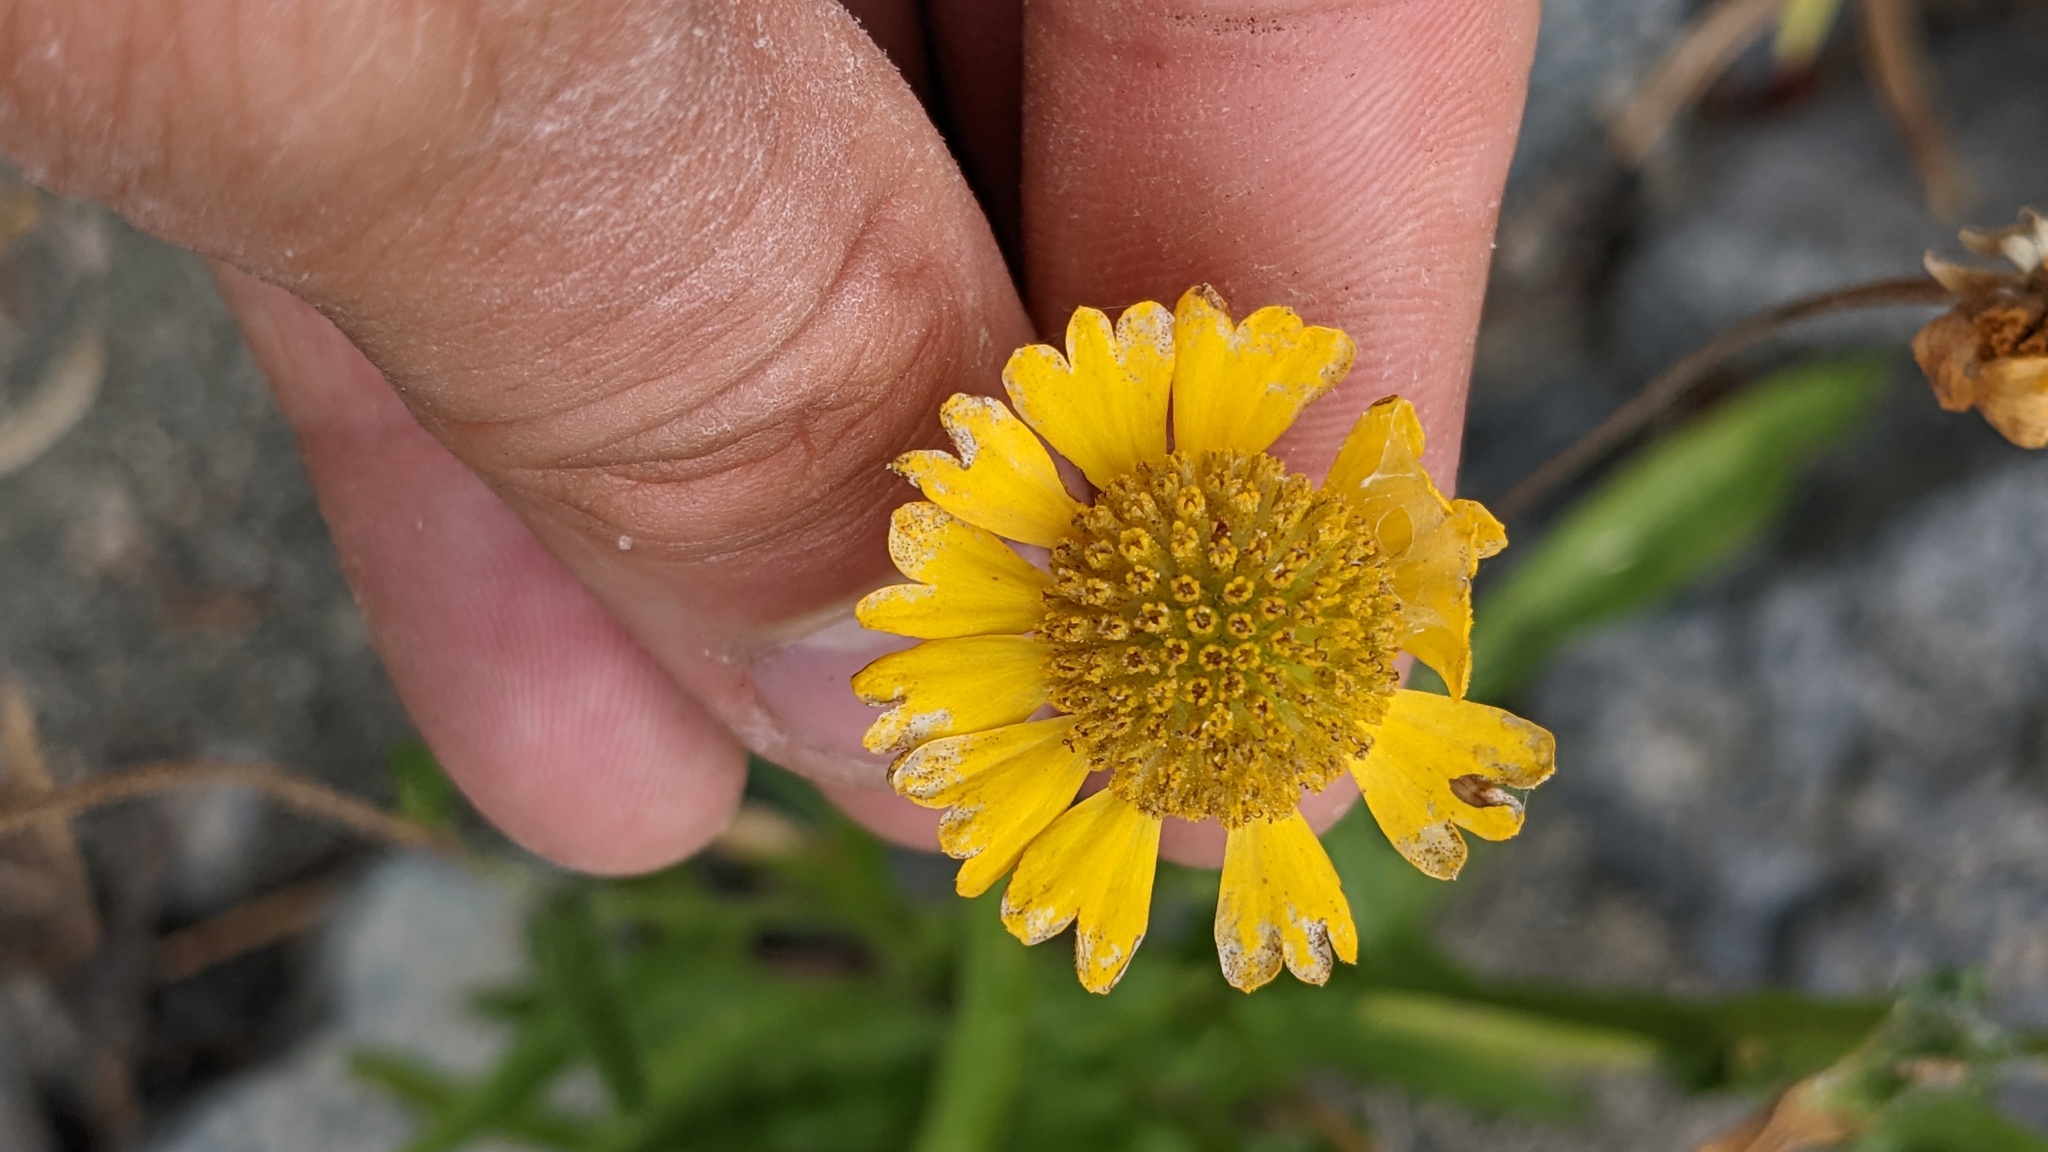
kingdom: Plantae
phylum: Tracheophyta
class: Magnoliopsida
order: Asterales
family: Asteraceae
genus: Helenium
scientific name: Helenium bigelovii
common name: Bigelow's sneezeweed
